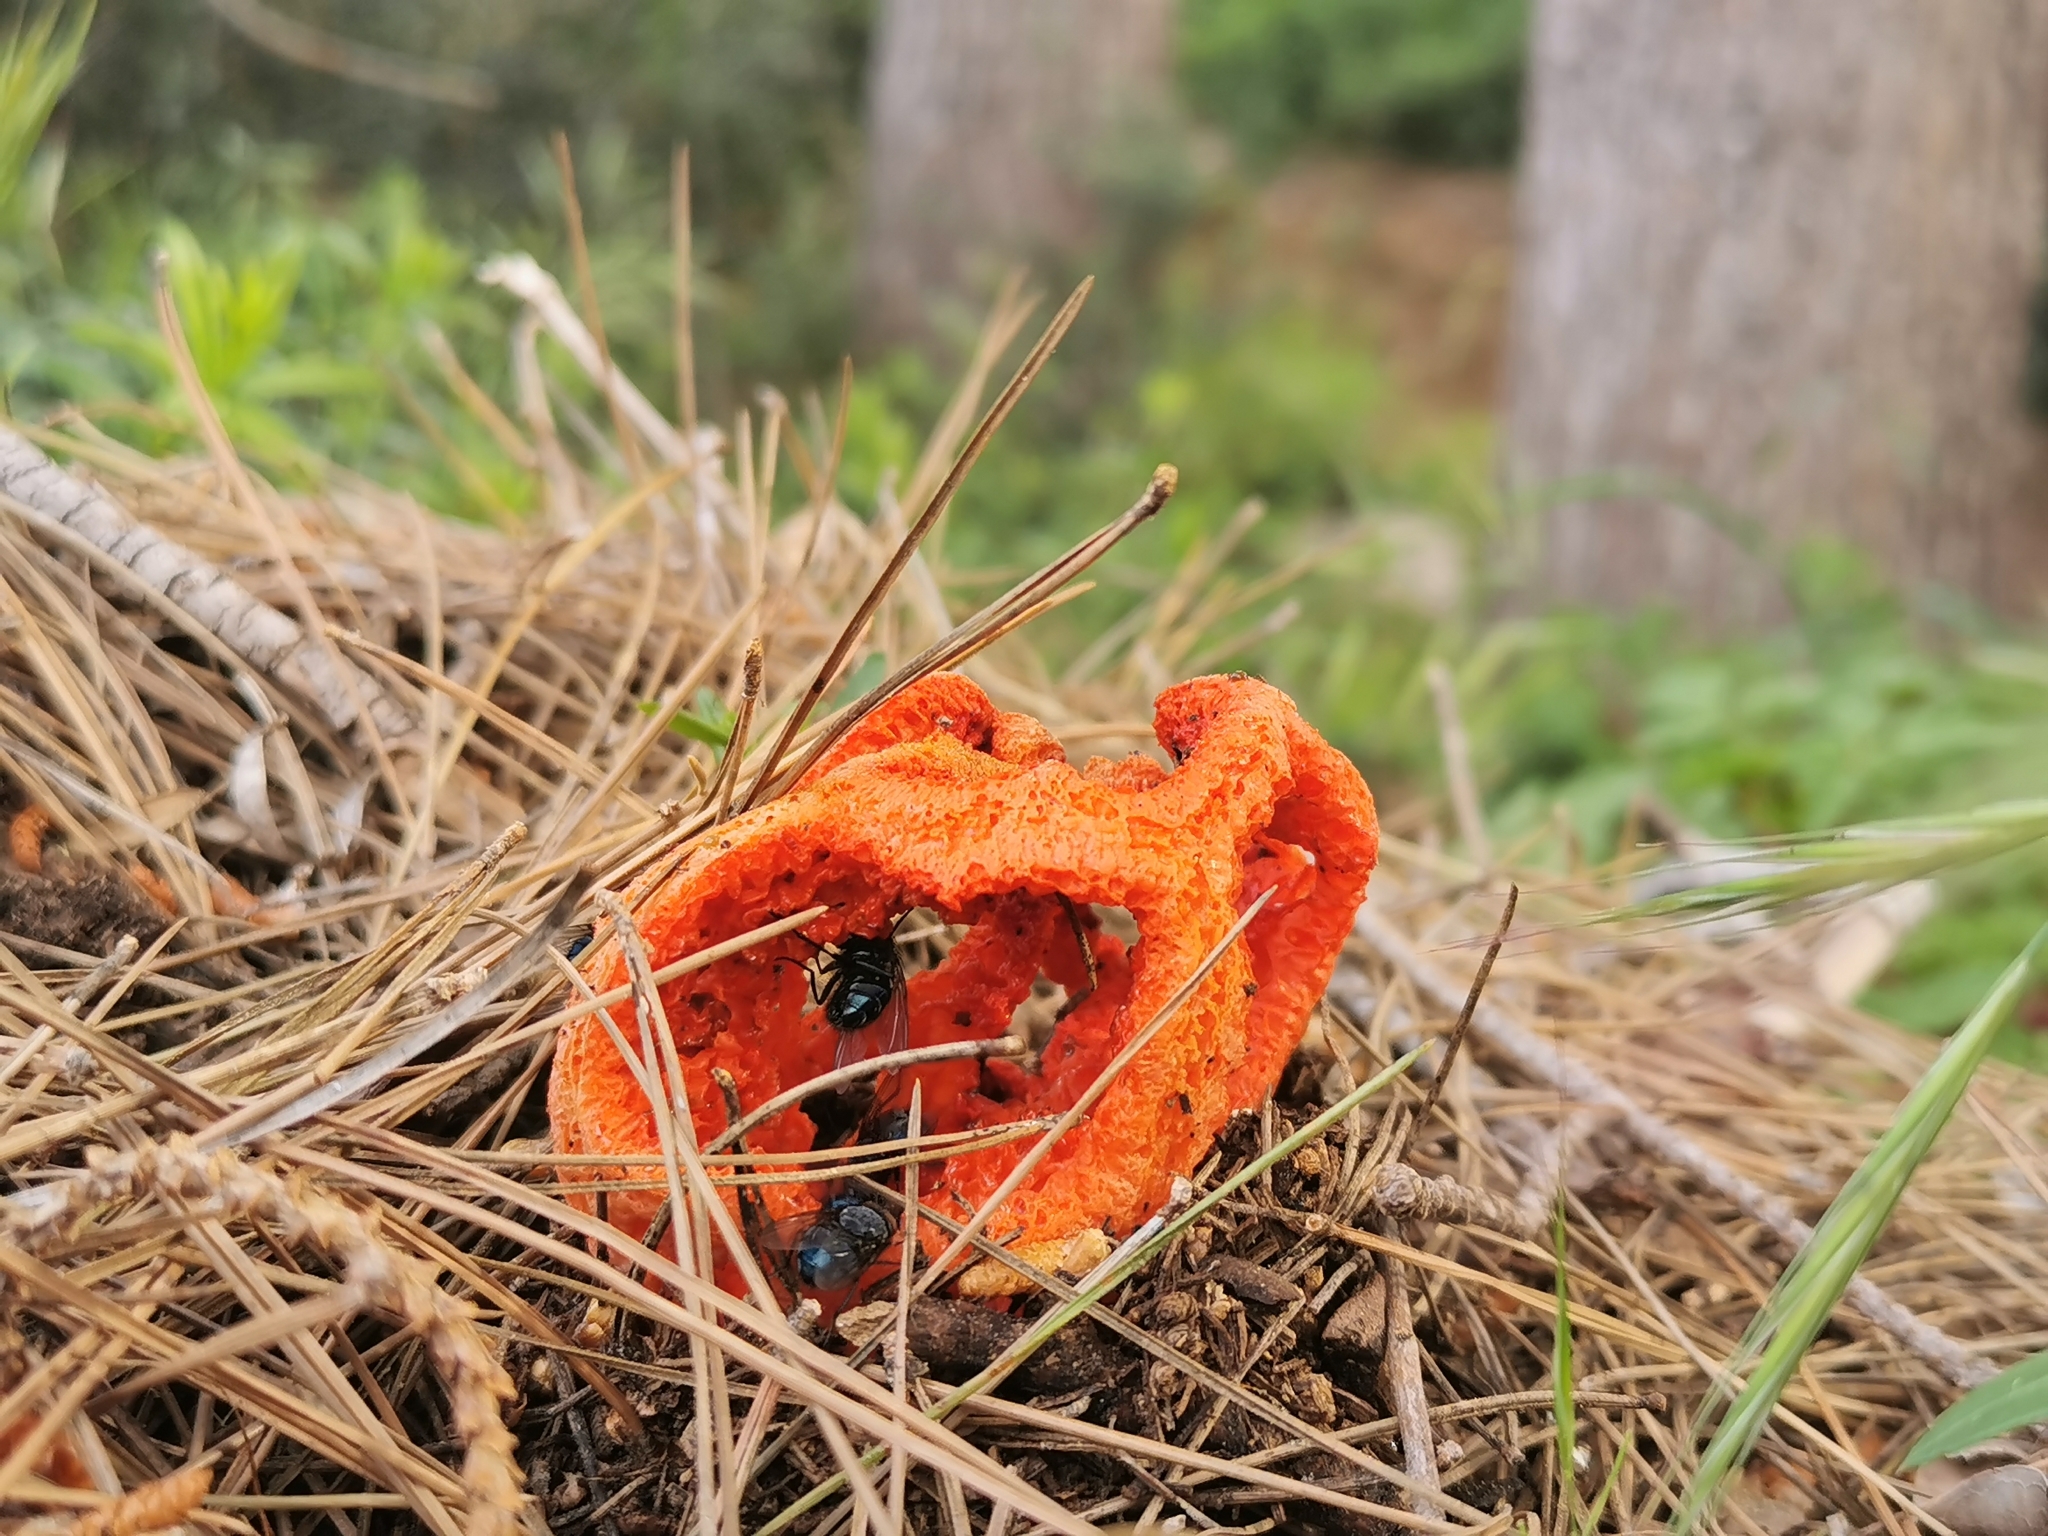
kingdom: Fungi
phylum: Basidiomycota
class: Agaricomycetes
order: Phallales
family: Phallaceae
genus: Clathrus
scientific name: Clathrus ruber
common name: Red cage
